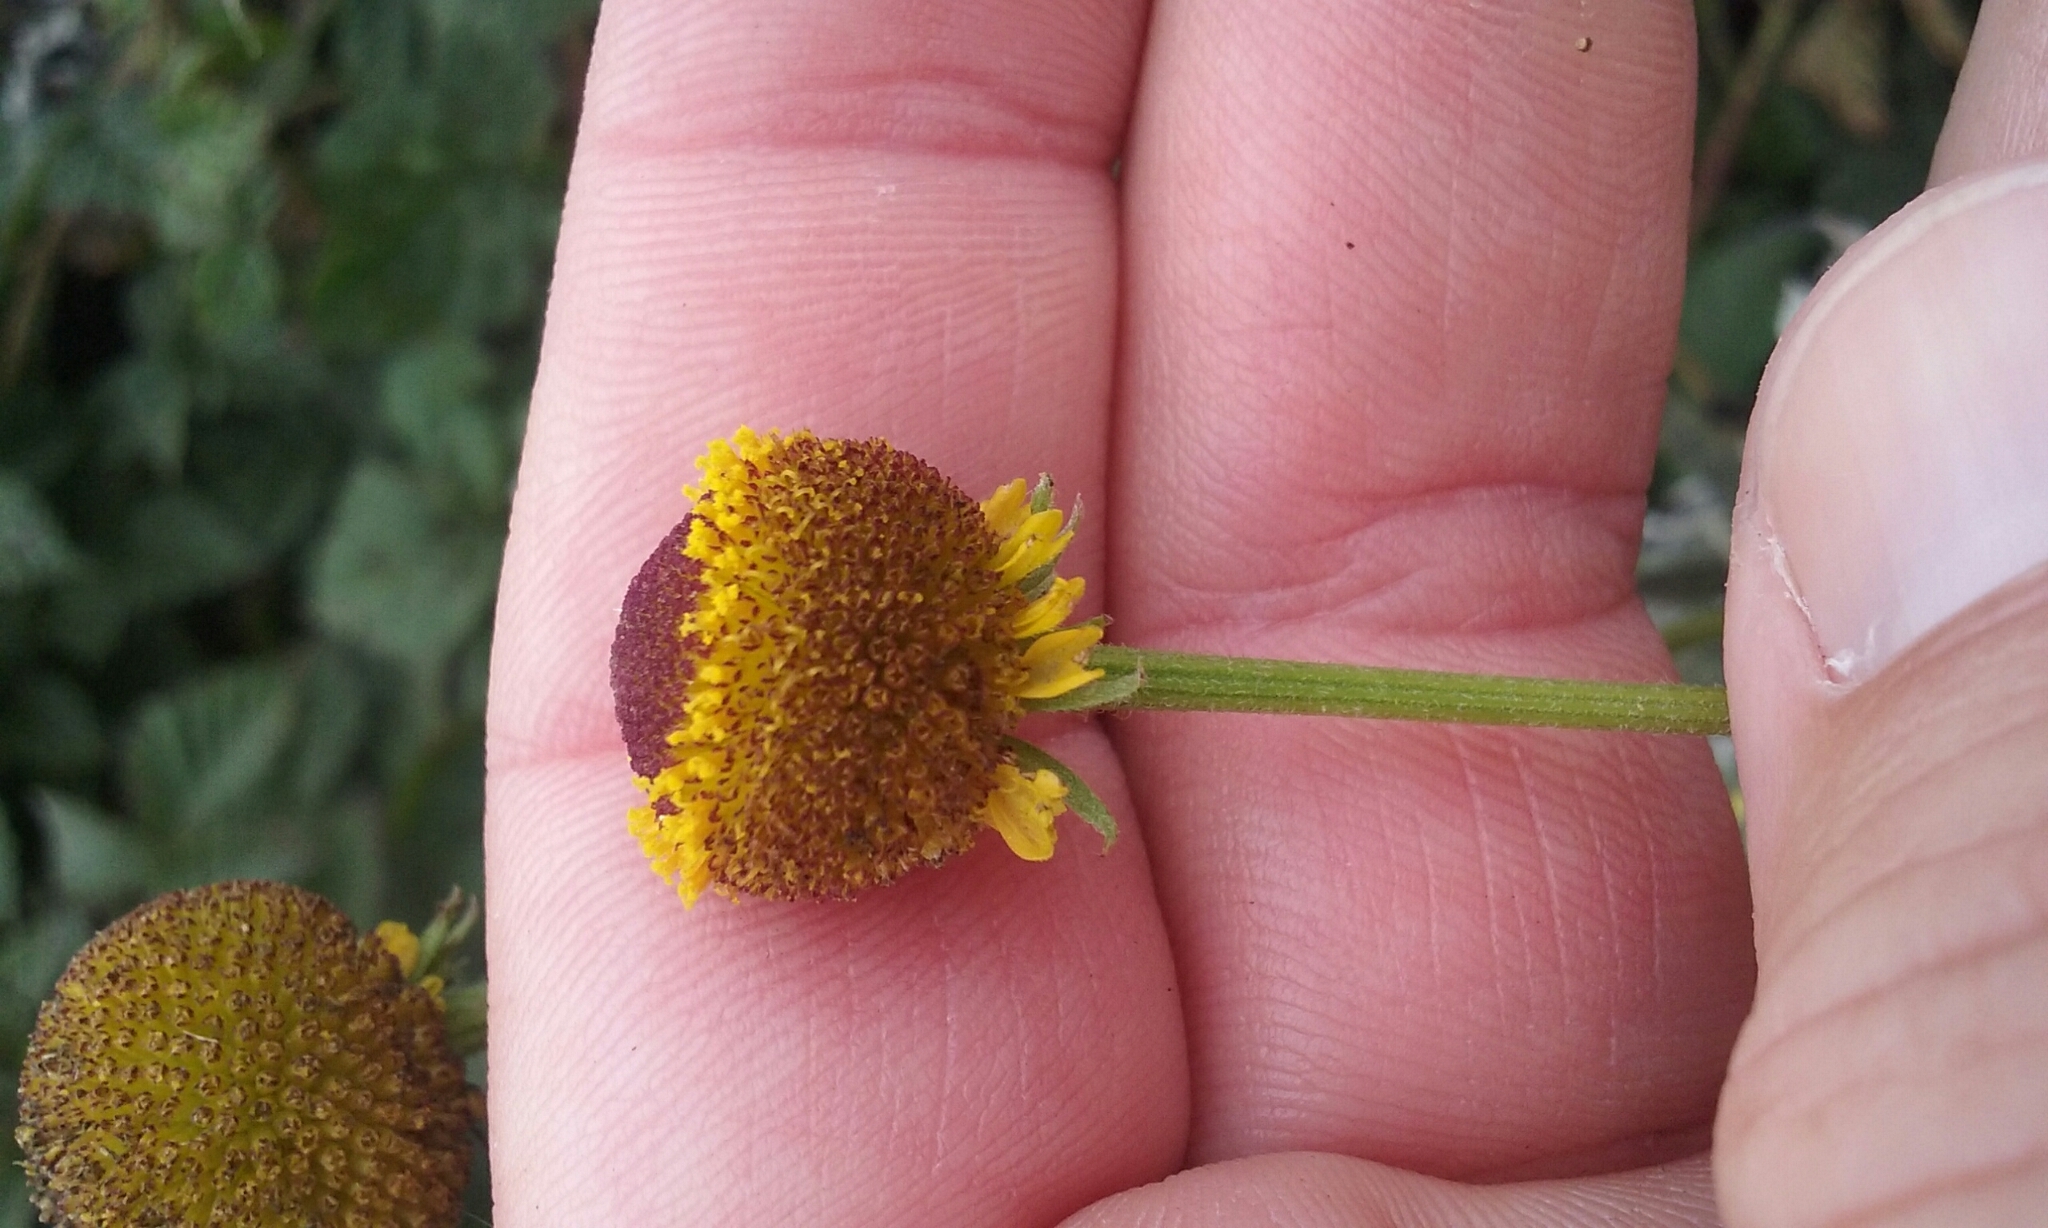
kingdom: Plantae
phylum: Tracheophyta
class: Magnoliopsida
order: Asterales
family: Asteraceae
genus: Helenium
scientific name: Helenium puberulum
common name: Sneezewort
